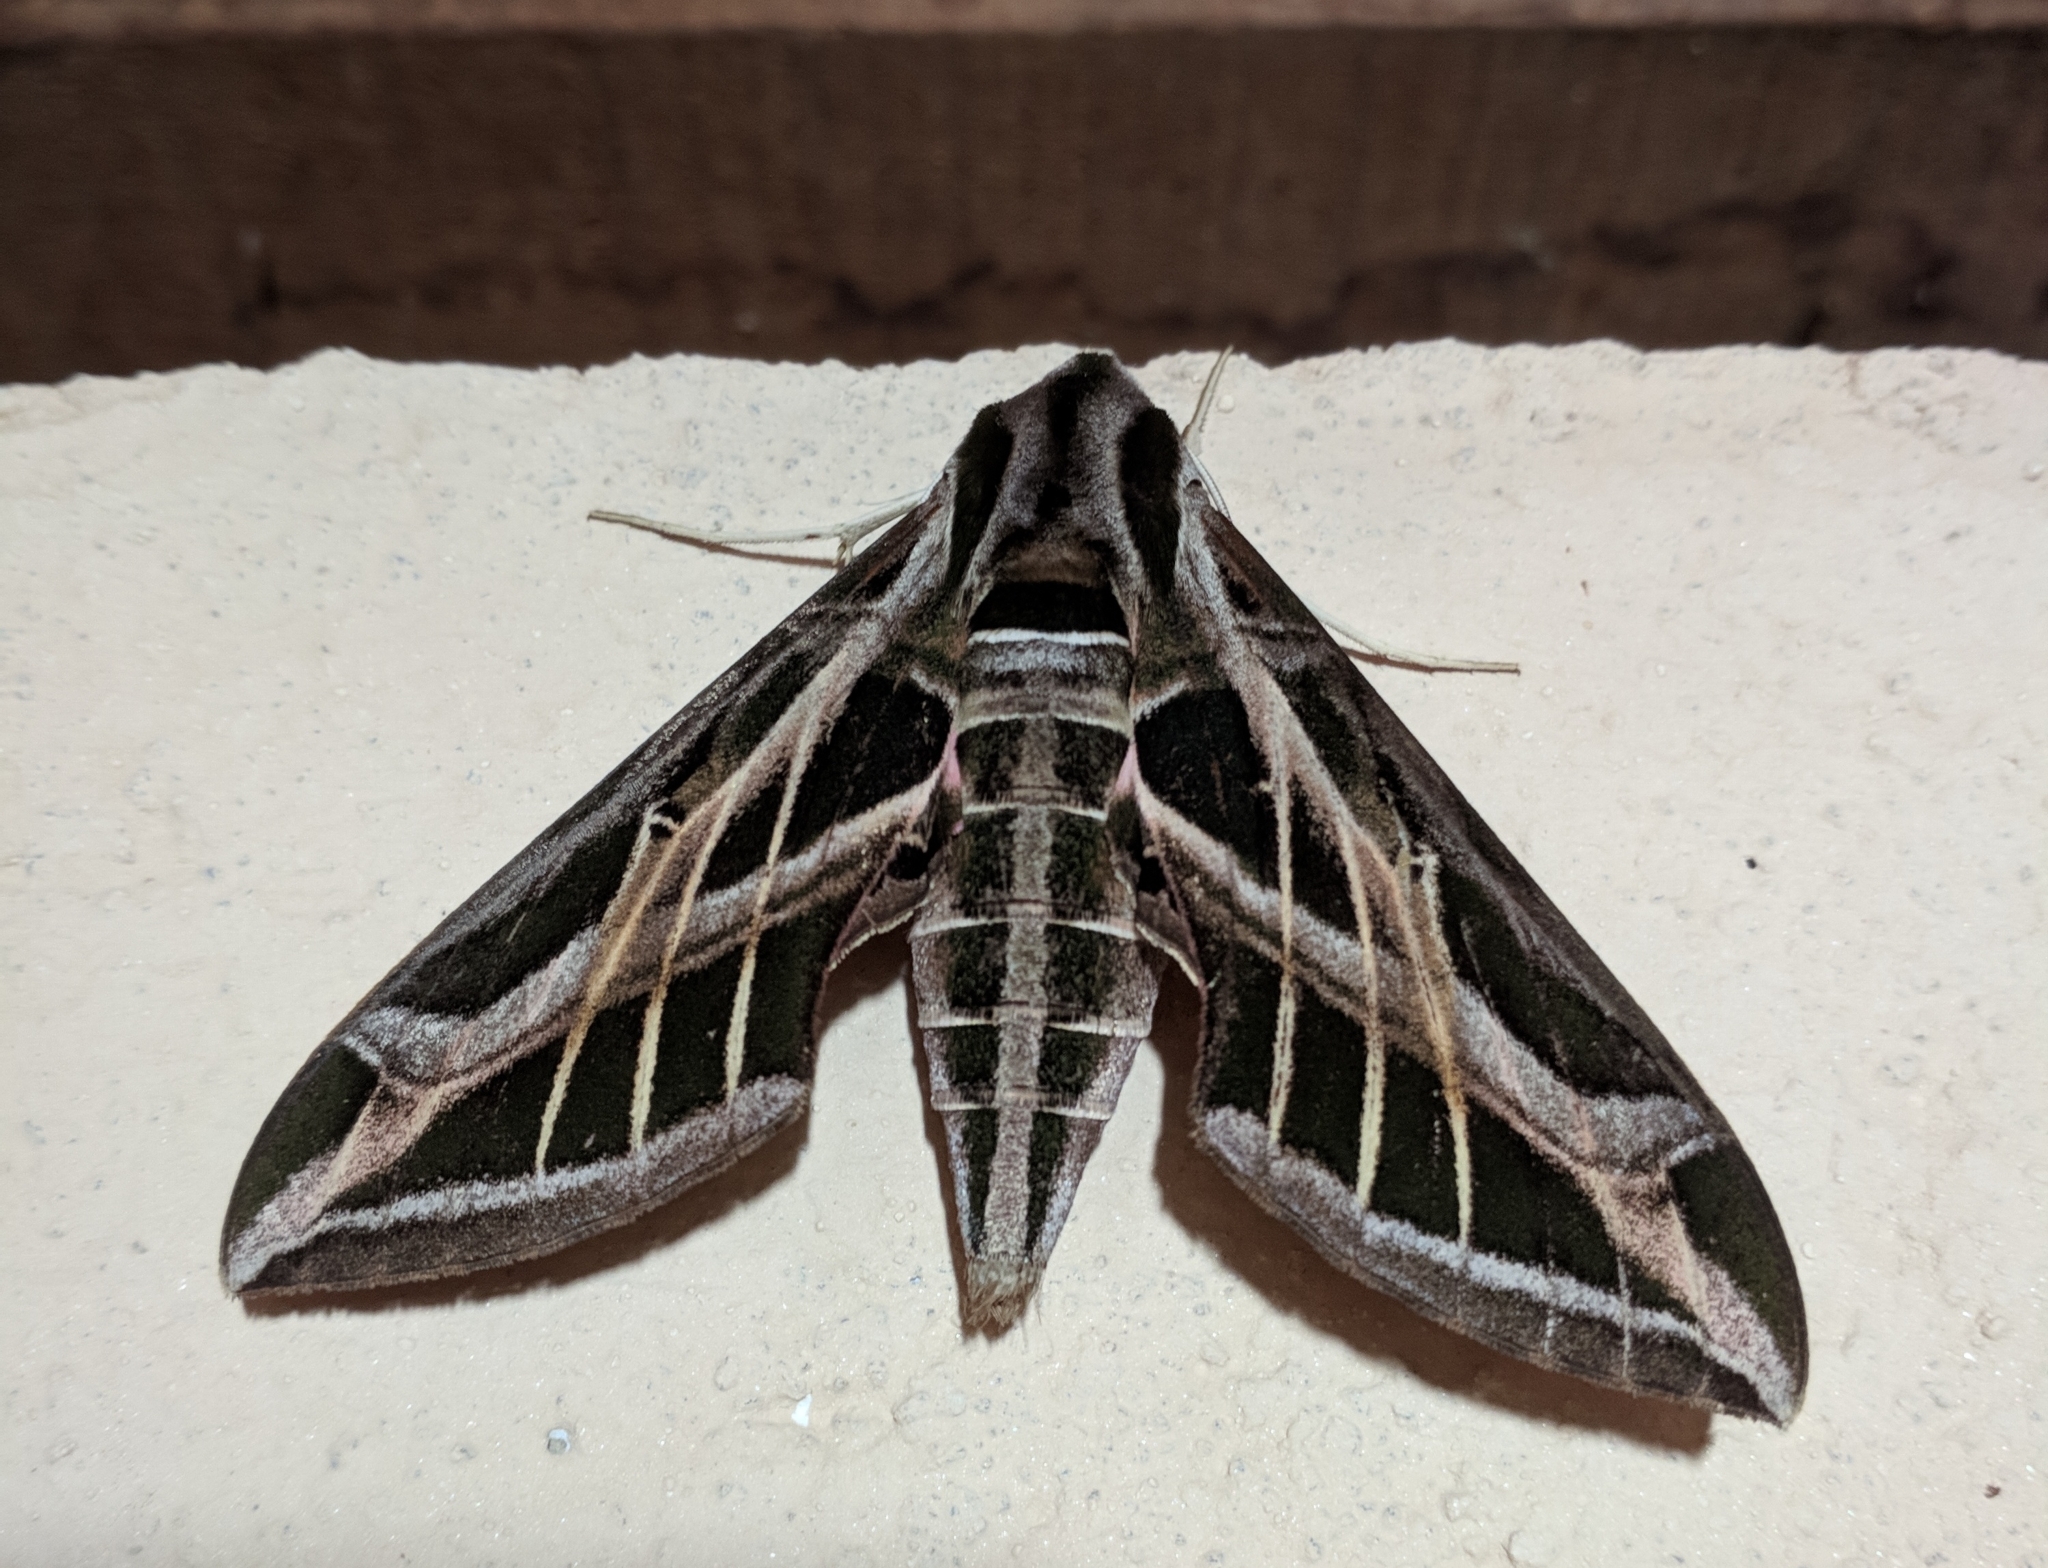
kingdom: Animalia
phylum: Arthropoda
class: Insecta
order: Lepidoptera
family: Sphingidae
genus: Eumorpha
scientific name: Eumorpha vitis
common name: Vine sphinx
